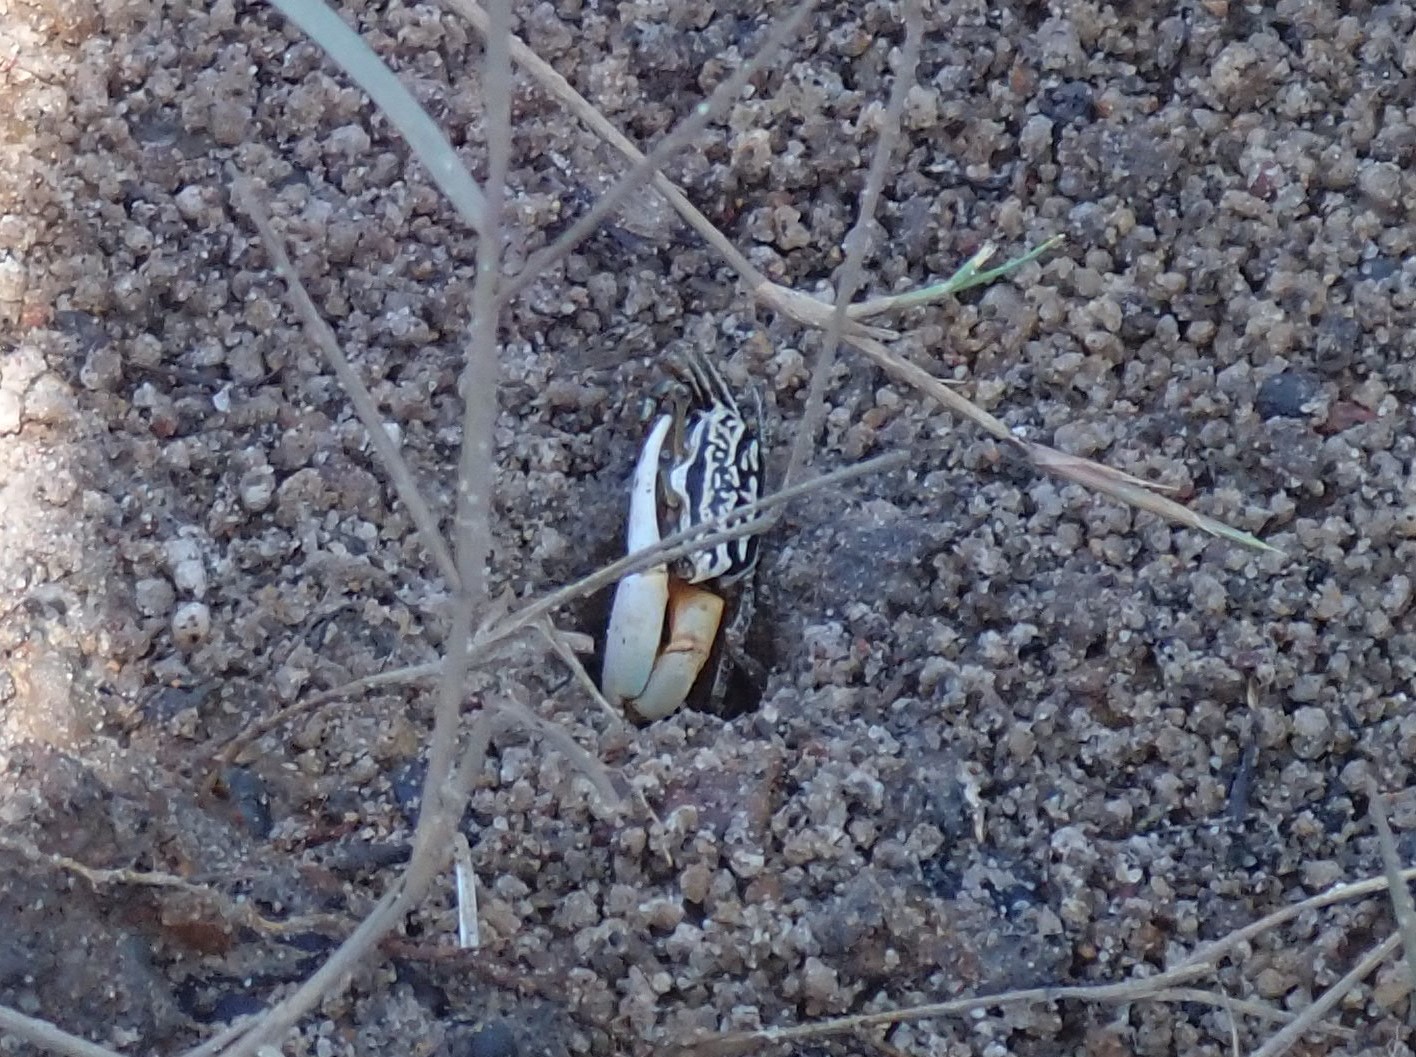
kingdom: Animalia
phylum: Arthropoda
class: Malacostraca
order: Decapoda
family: Ocypodidae
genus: Austruca
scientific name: Austruca annulipes
